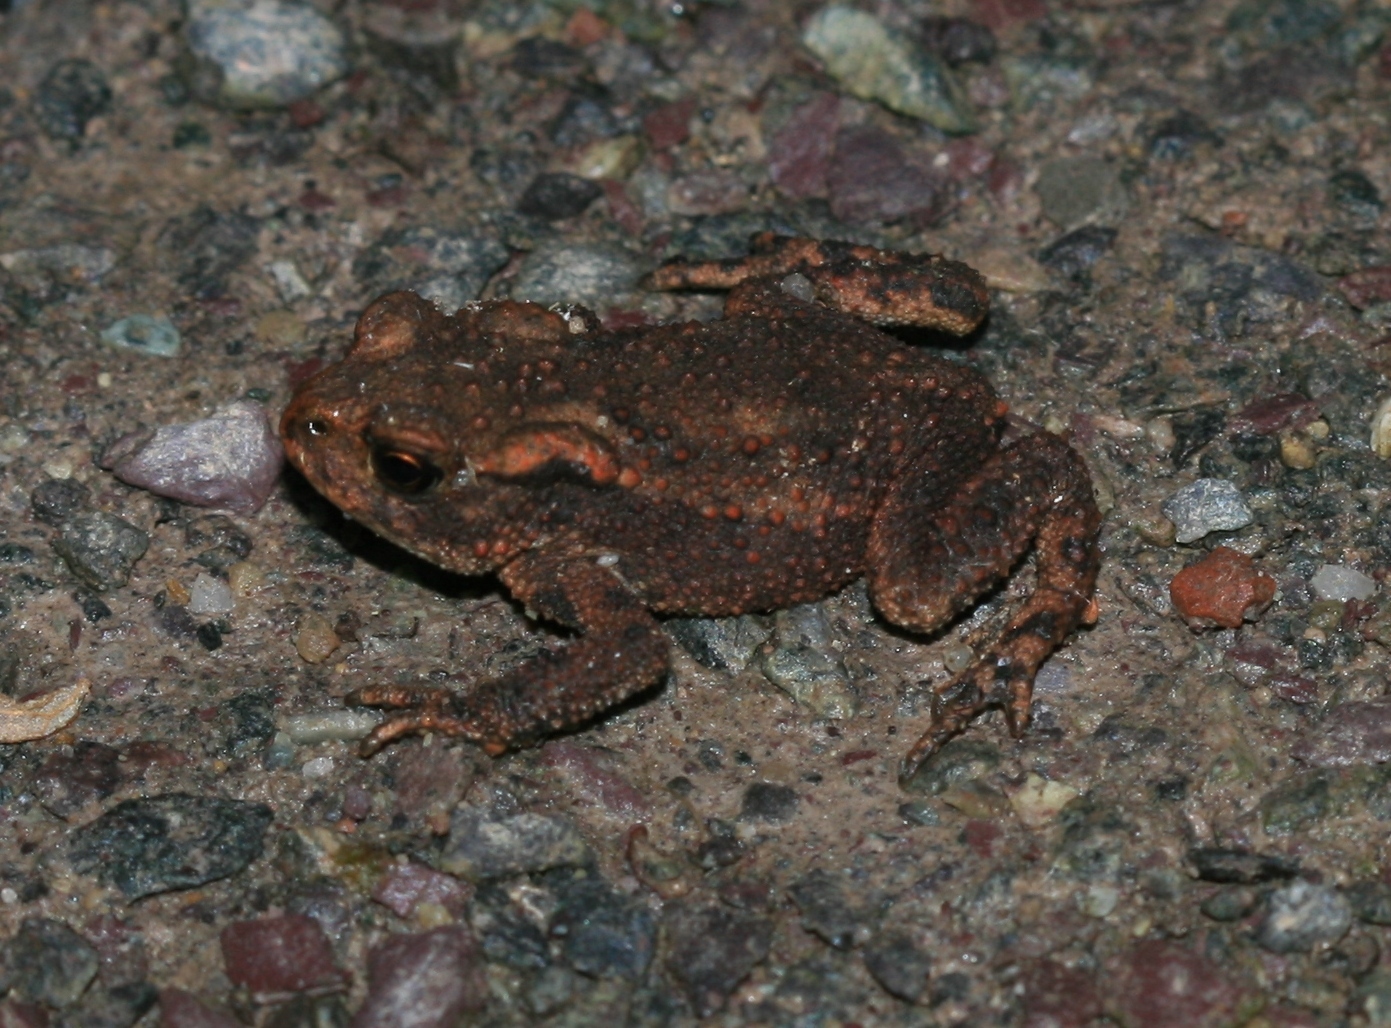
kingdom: Animalia
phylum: Chordata
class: Amphibia
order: Anura
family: Bufonidae
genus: Bufo
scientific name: Bufo bufo
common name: Common toad
